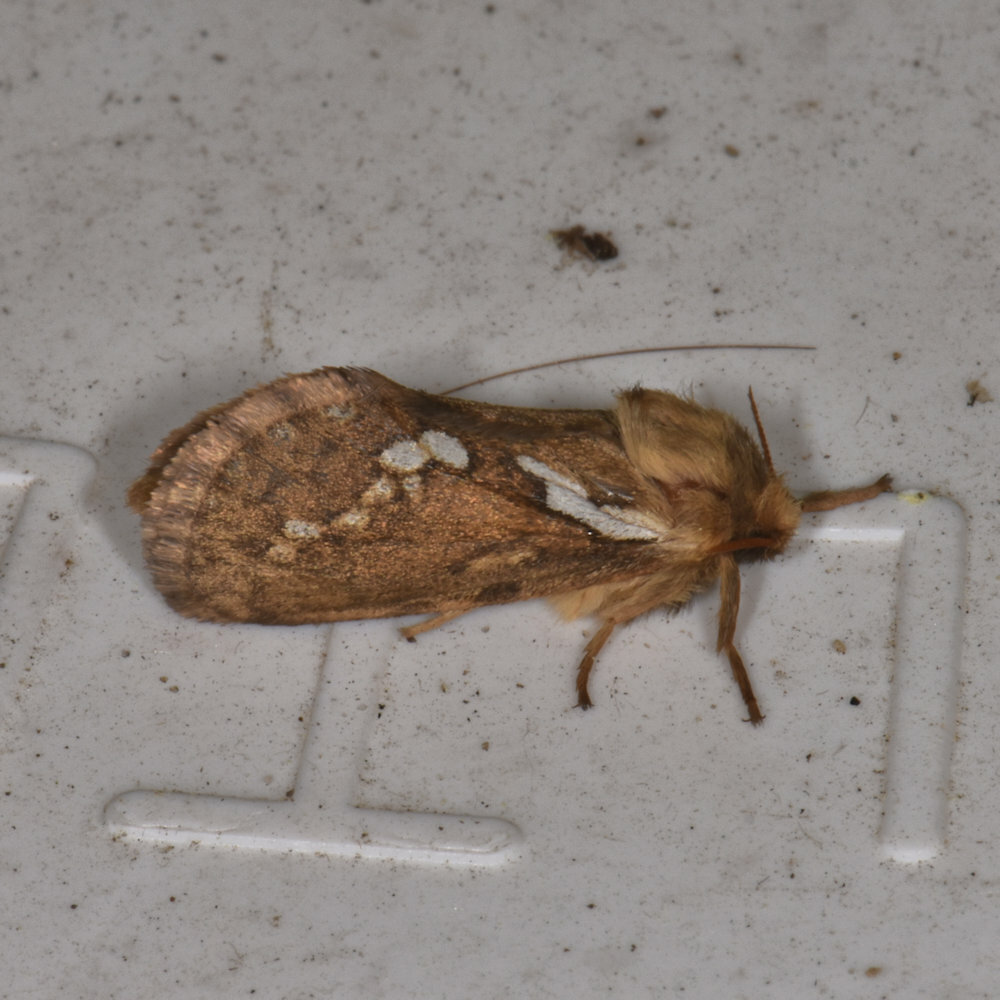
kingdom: Animalia
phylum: Arthropoda
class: Insecta
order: Lepidoptera
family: Hepialidae
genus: Korscheltellus
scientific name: Korscheltellus lupulina
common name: Common swift
